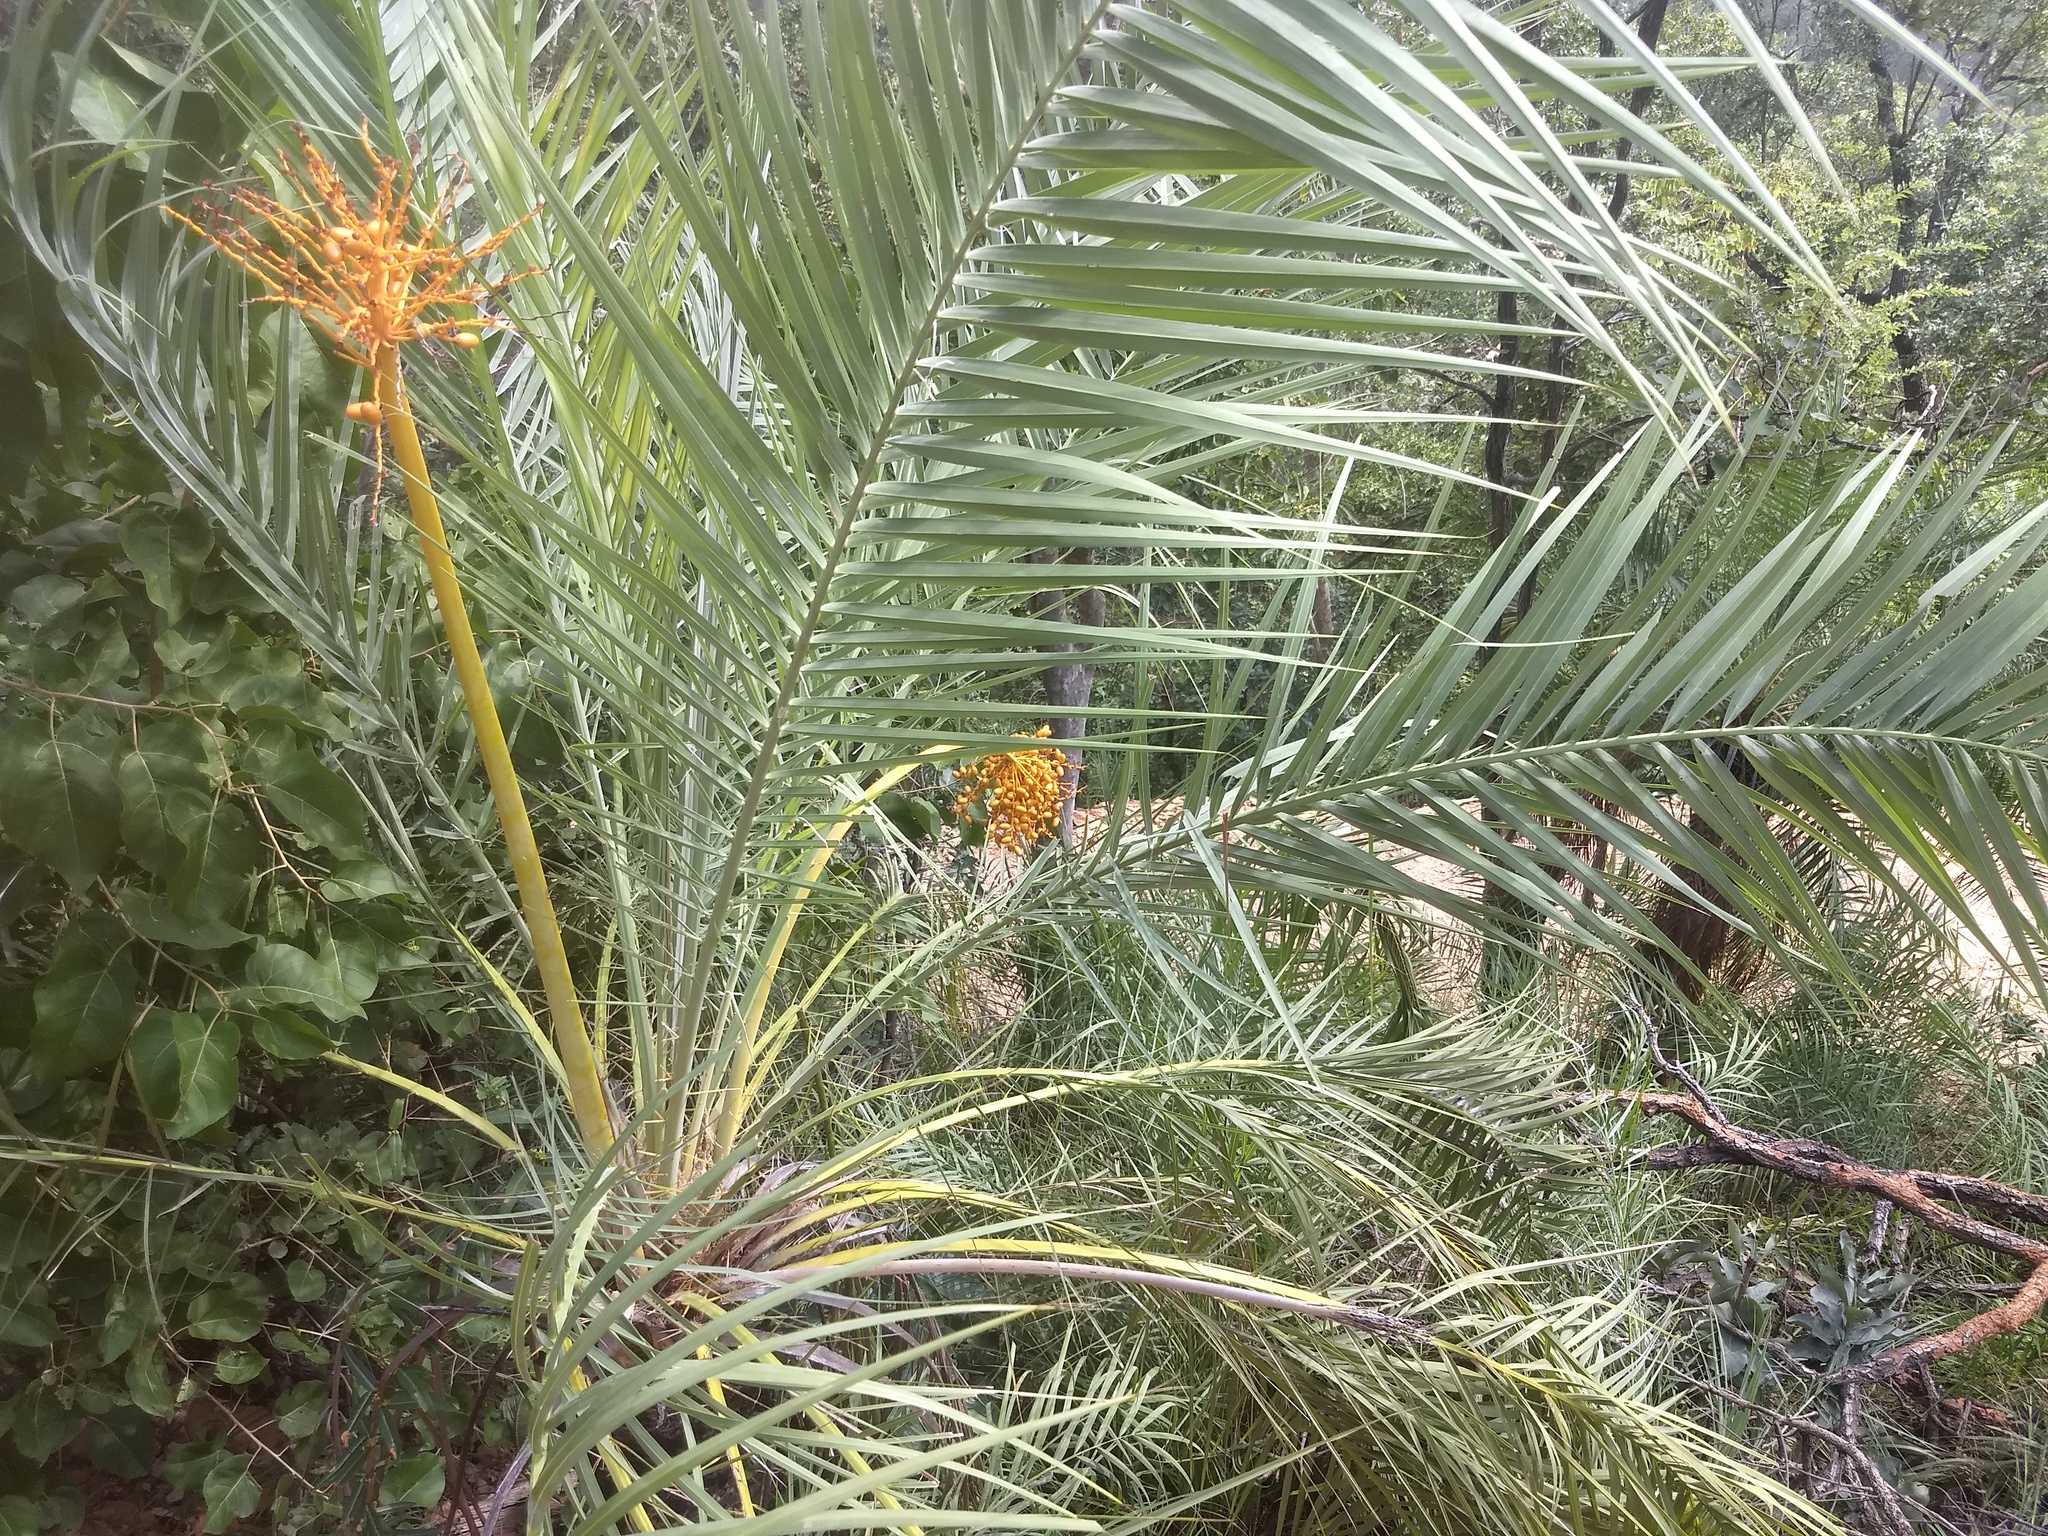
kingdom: Plantae
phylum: Tracheophyta
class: Liliopsida
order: Arecales
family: Arecaceae
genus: Phoenix
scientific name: Phoenix loureiroi
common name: Loureiro's palm
